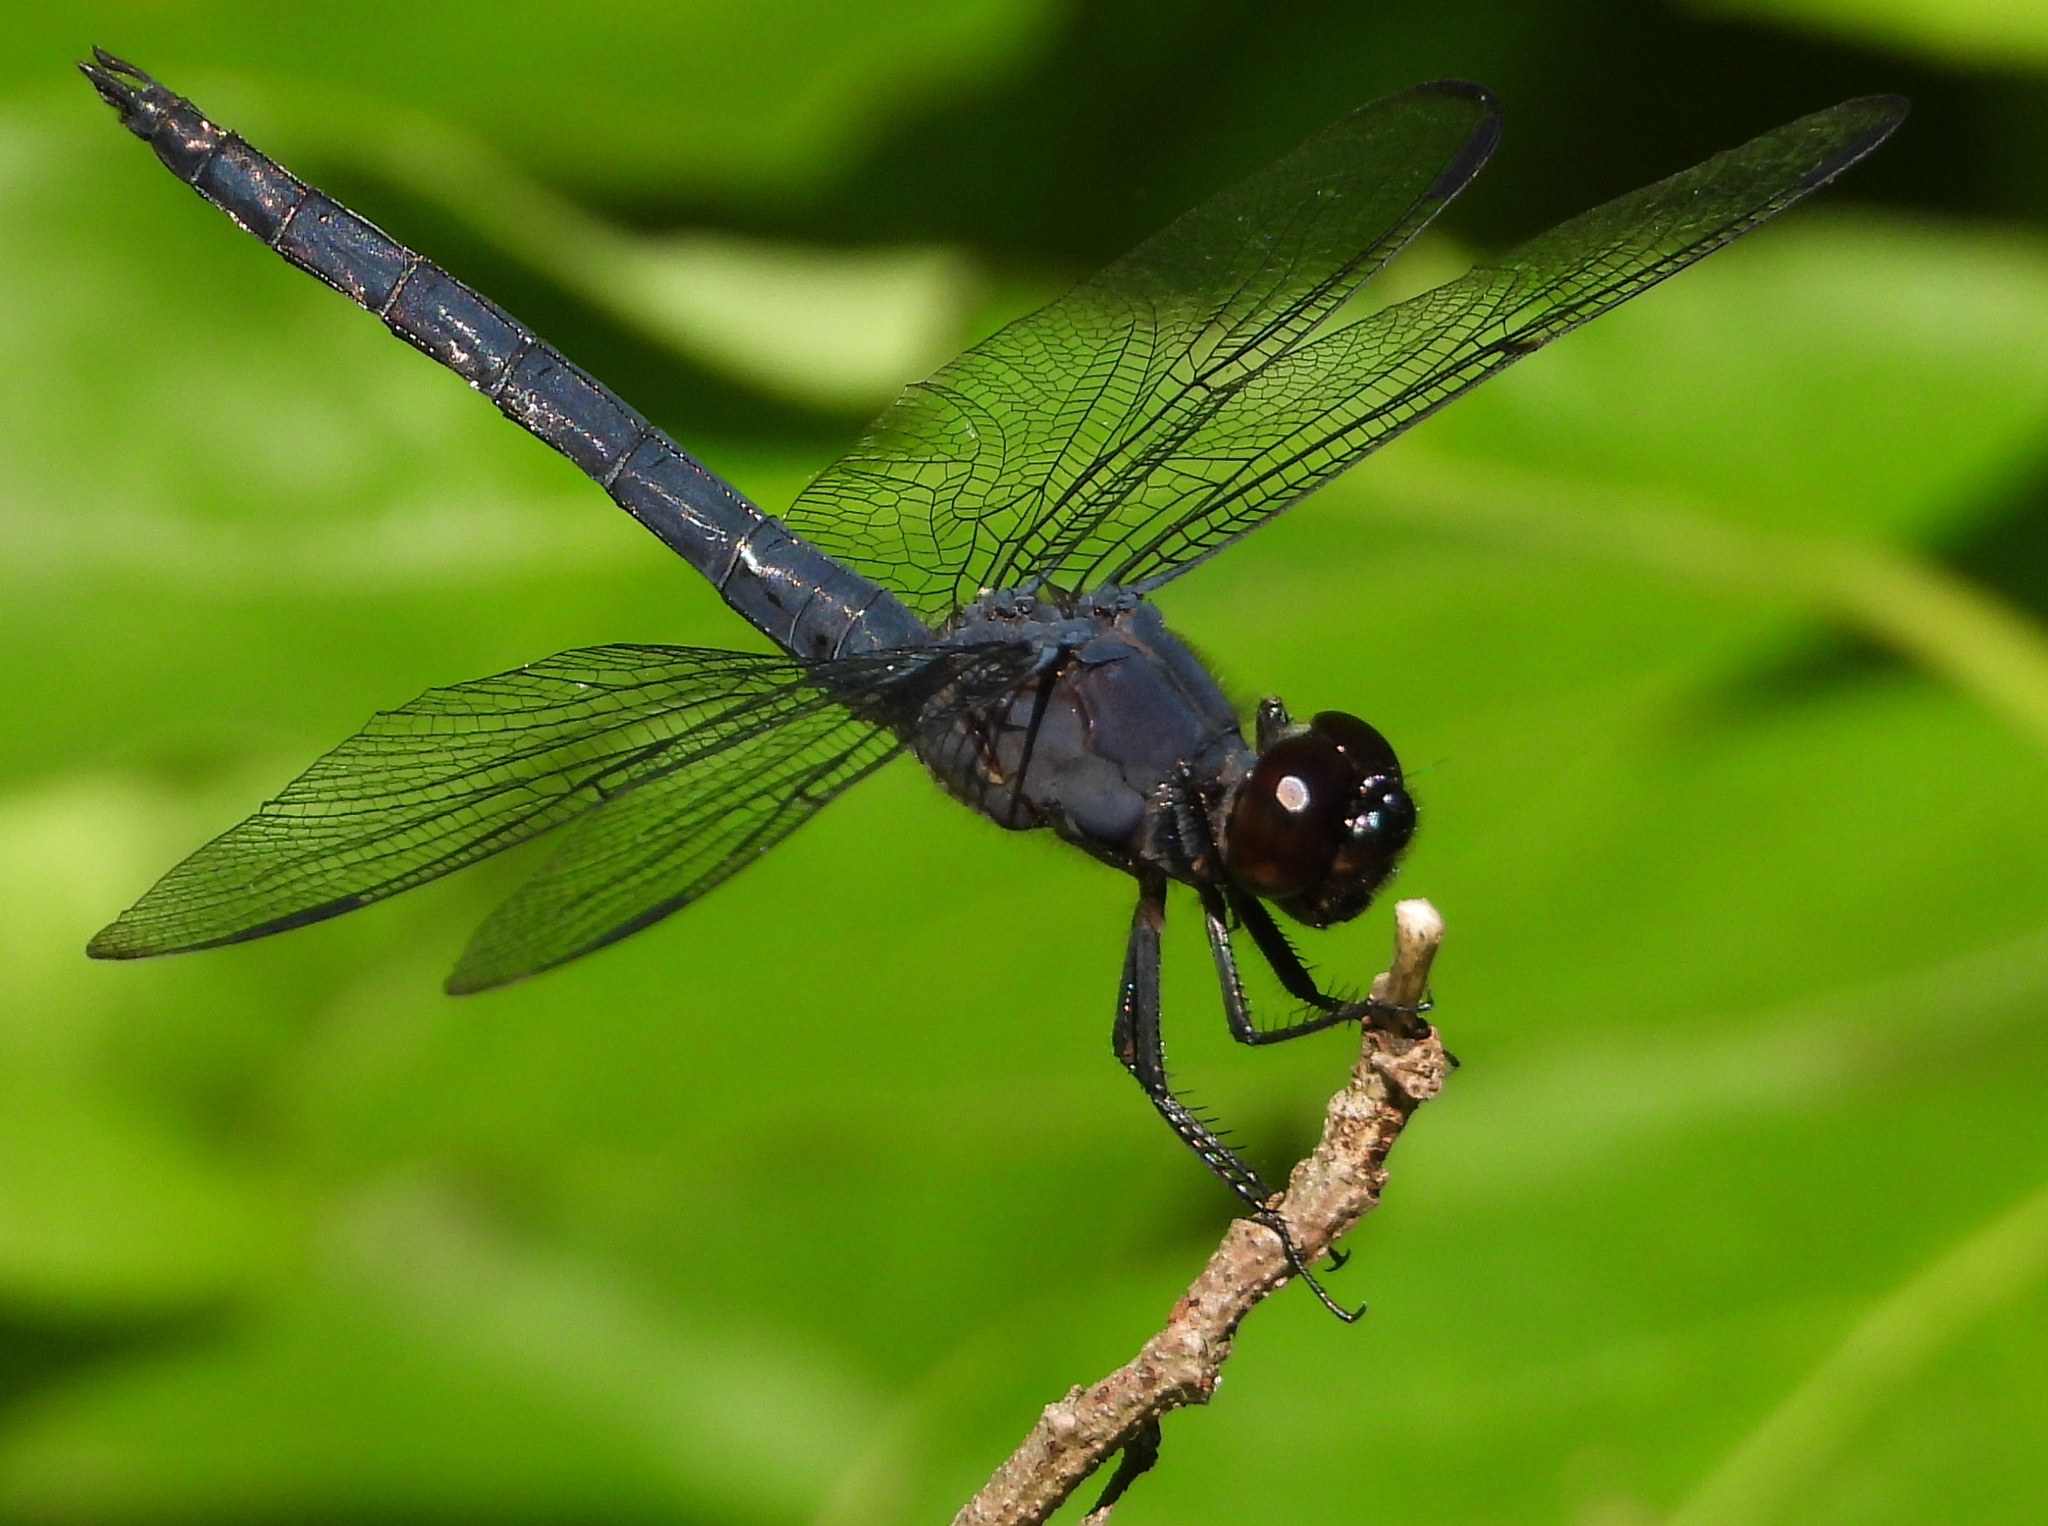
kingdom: Animalia
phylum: Arthropoda
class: Insecta
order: Odonata
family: Libellulidae
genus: Libellula
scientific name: Libellula incesta
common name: Slaty skimmer
